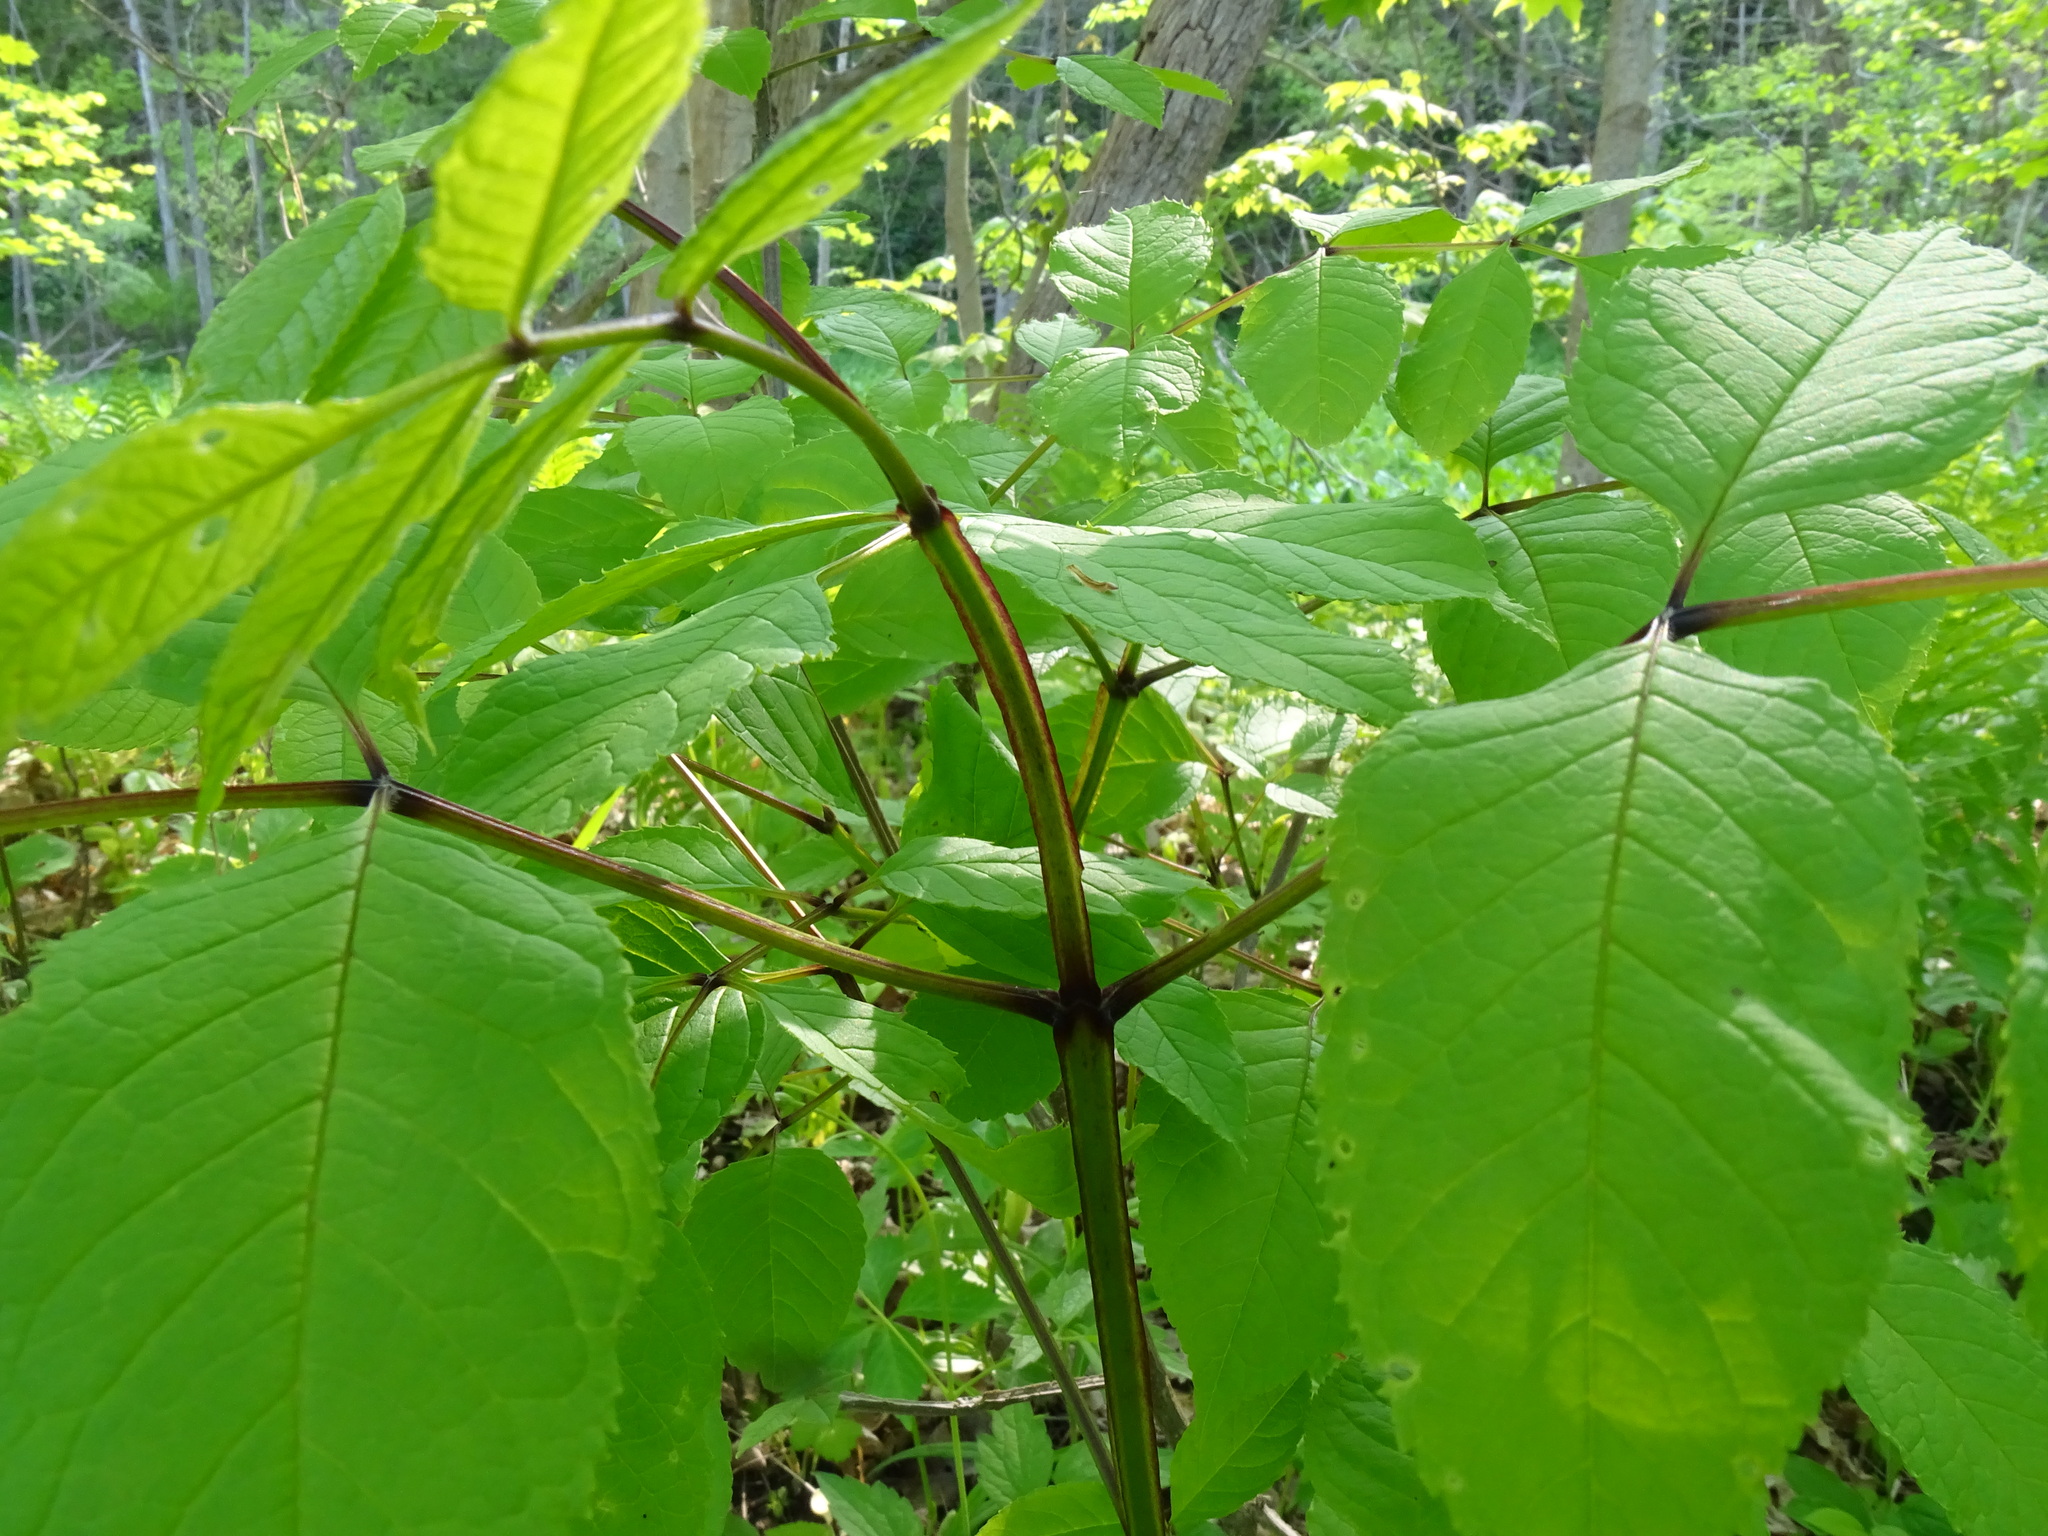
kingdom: Plantae
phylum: Tracheophyta
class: Magnoliopsida
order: Lamiales
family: Oleaceae
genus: Fraxinus
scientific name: Fraxinus quadrangulata
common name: Blue ash
